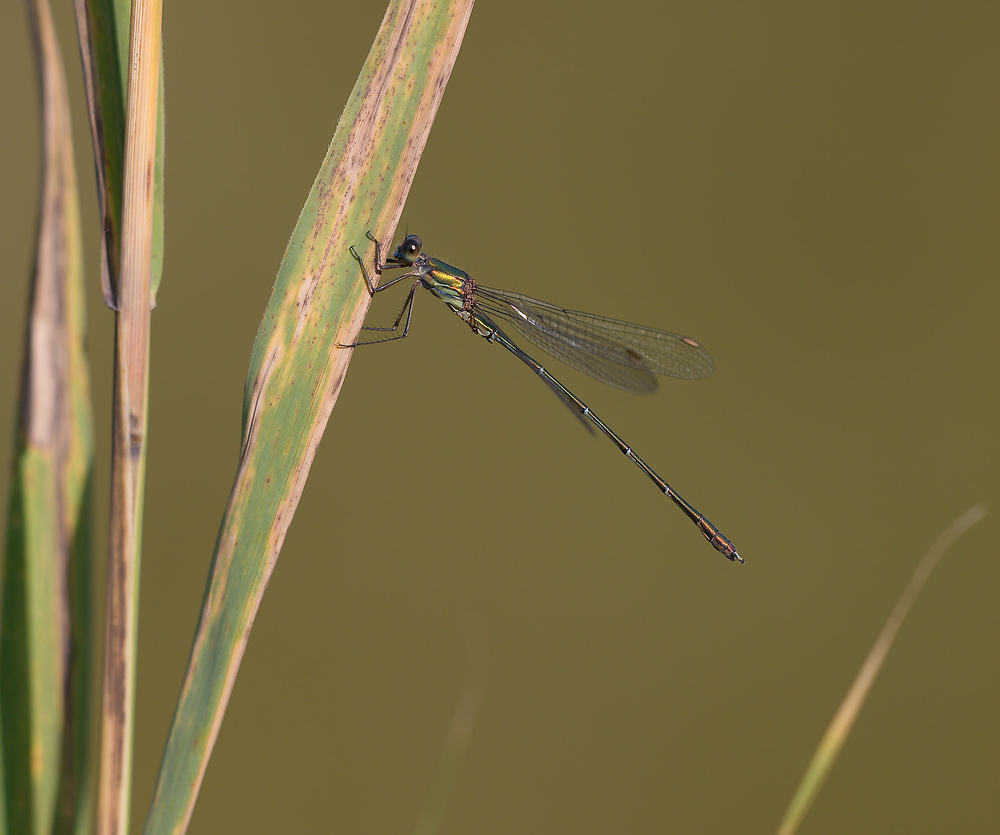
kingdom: Animalia
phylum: Arthropoda
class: Insecta
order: Odonata
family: Lestidae
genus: Chalcolestes
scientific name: Chalcolestes viridis
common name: Green emerald damselfly
